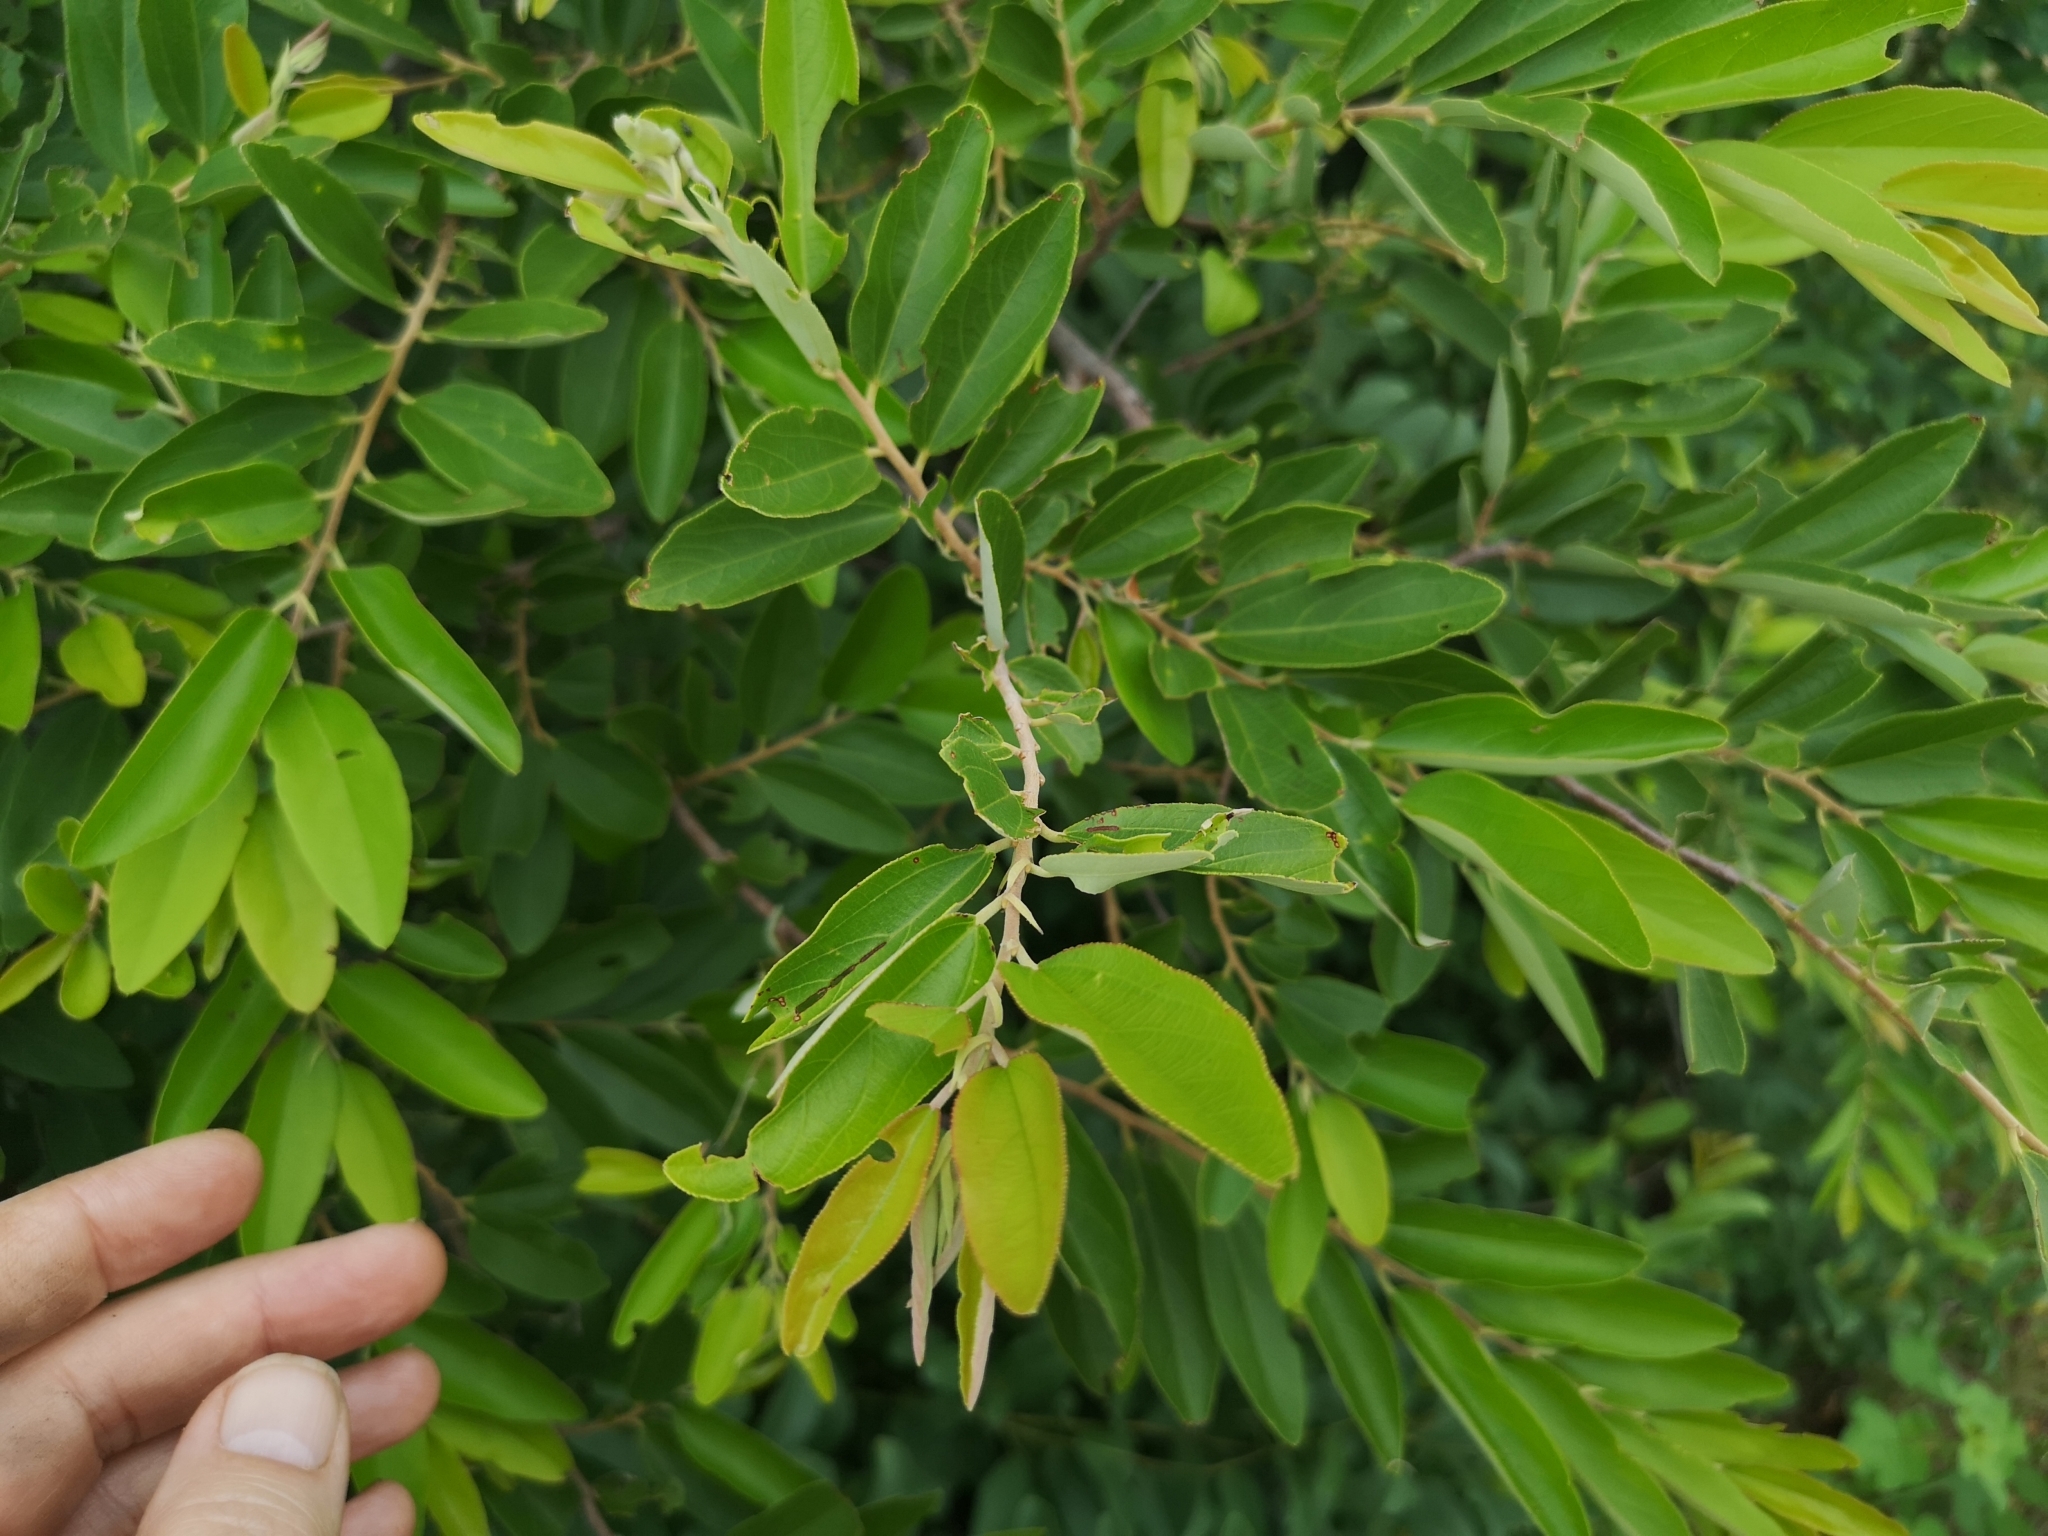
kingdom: Plantae
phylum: Tracheophyta
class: Magnoliopsida
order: Malvales
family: Malvaceae
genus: Grewia
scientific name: Grewia bicolor
